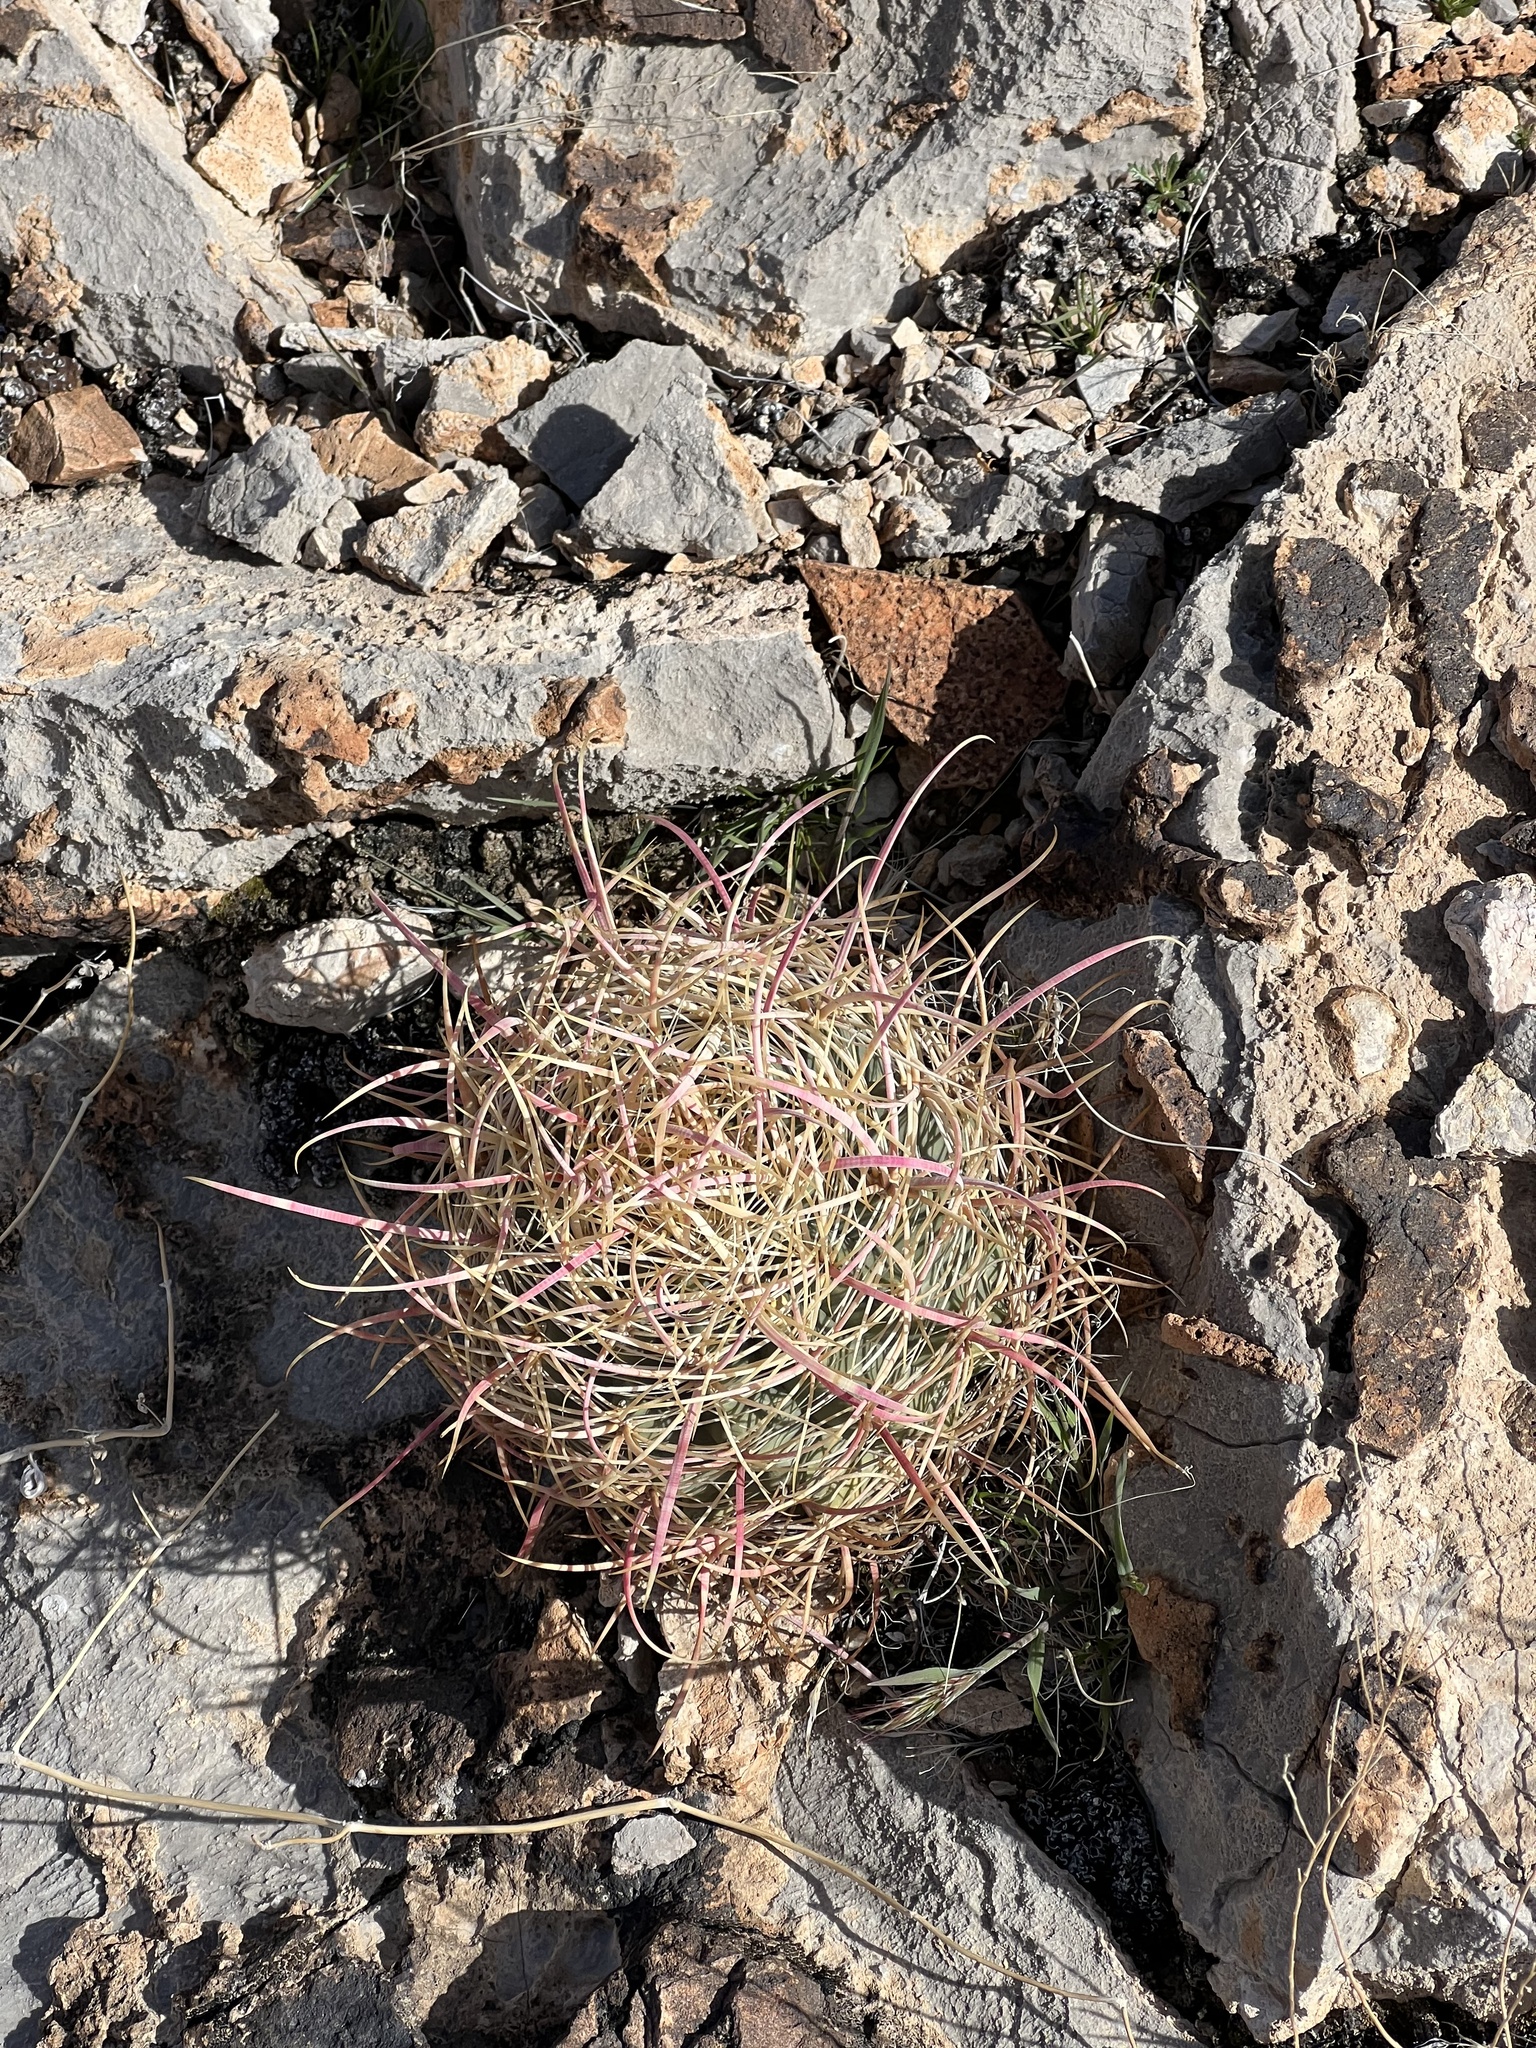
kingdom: Plantae
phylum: Tracheophyta
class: Magnoliopsida
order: Caryophyllales
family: Cactaceae
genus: Ferocactus
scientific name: Ferocactus cylindraceus
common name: California barrel cactus
